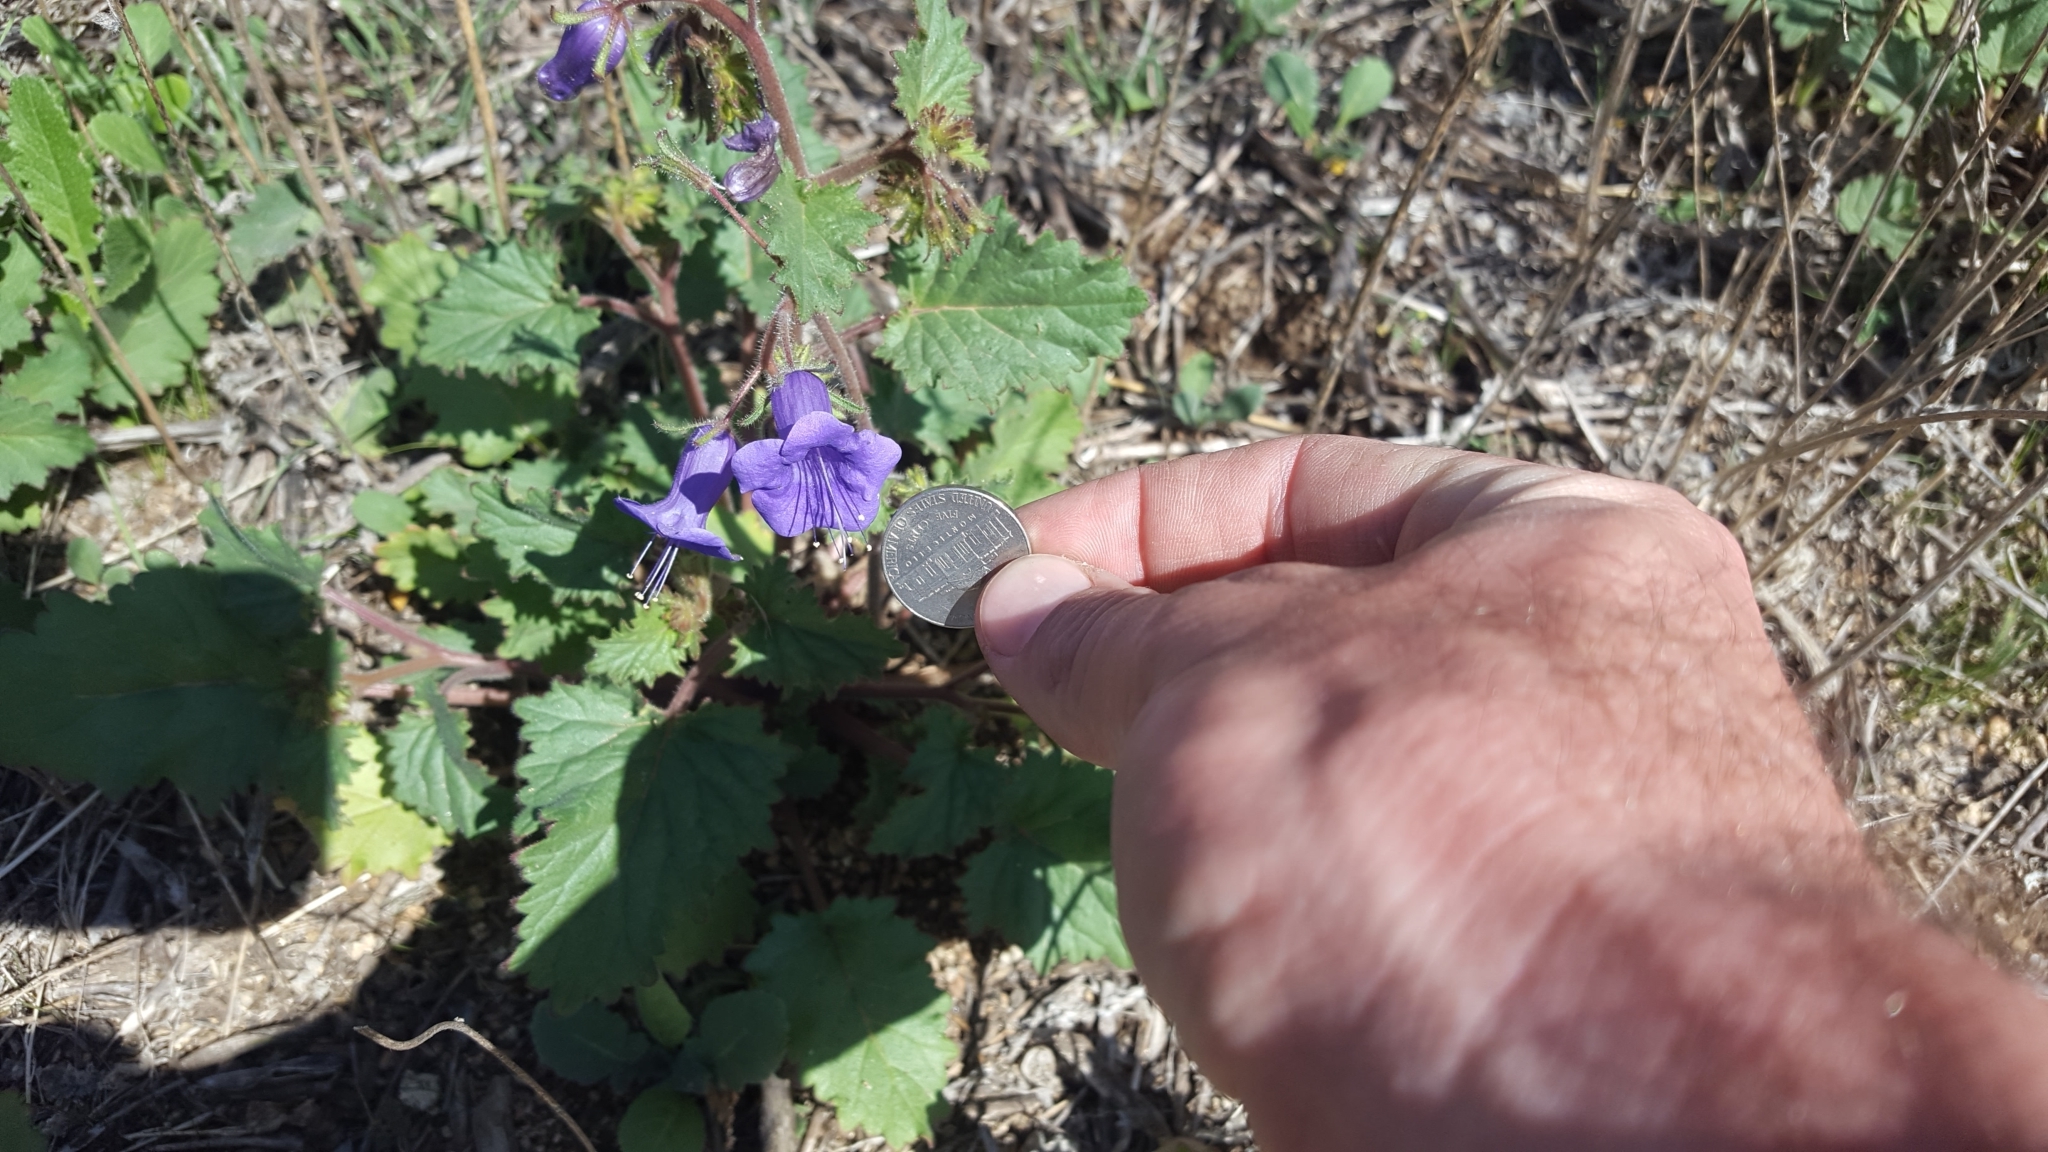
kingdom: Plantae
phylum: Tracheophyta
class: Magnoliopsida
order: Boraginales
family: Hydrophyllaceae
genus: Phacelia
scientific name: Phacelia minor
